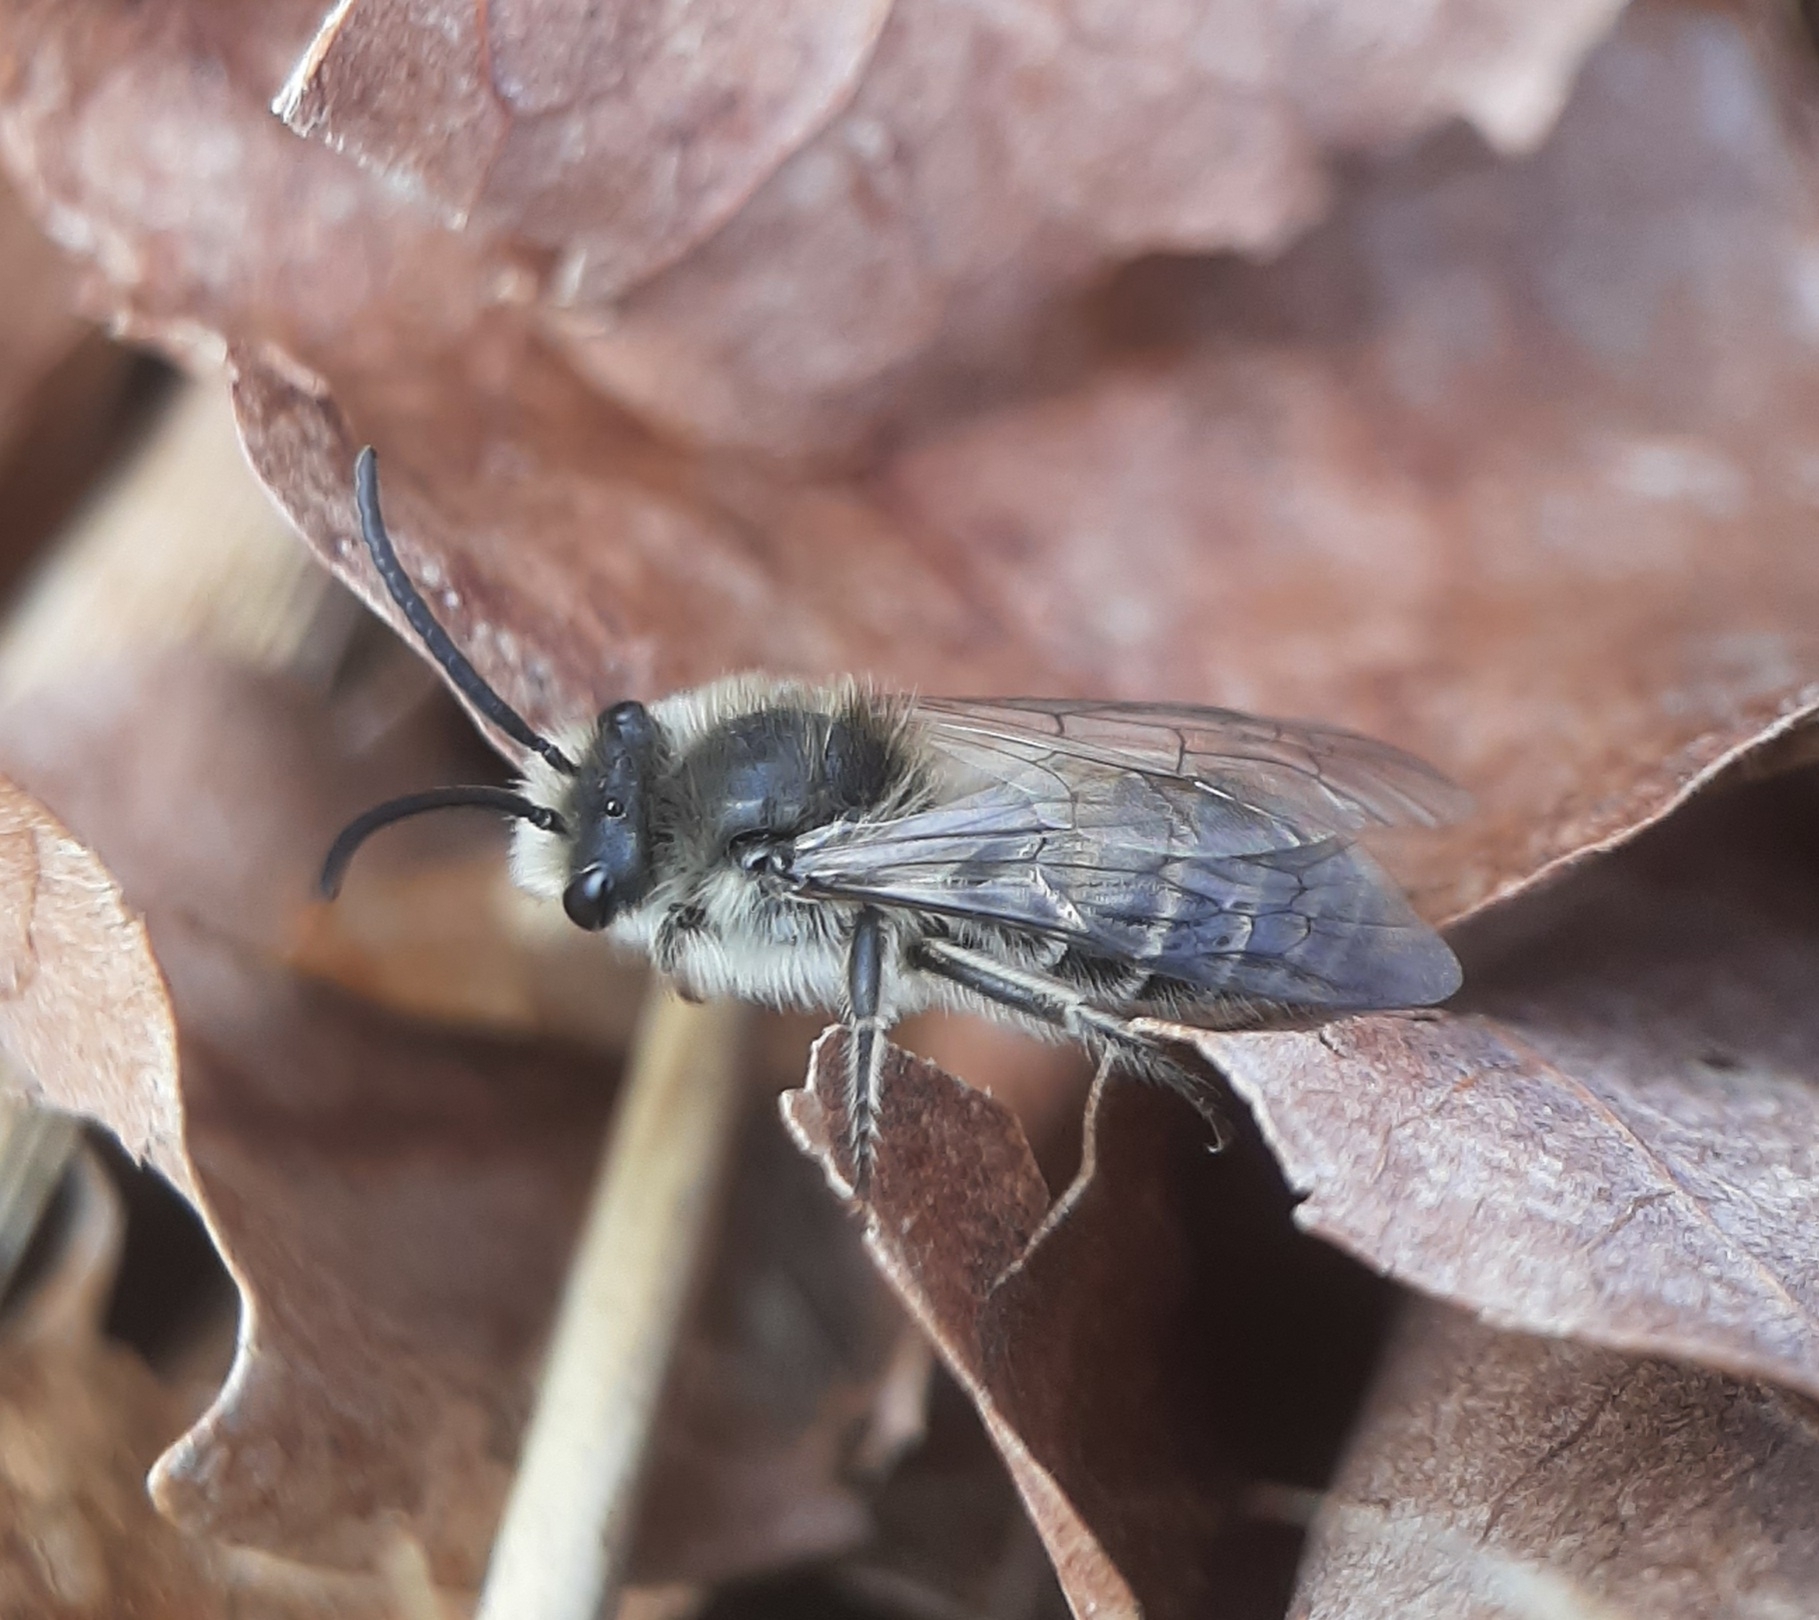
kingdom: Animalia
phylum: Arthropoda
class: Insecta
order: Hymenoptera
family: Colletidae
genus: Colletes
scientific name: Colletes inaequalis
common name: Unequal cellophane bee
